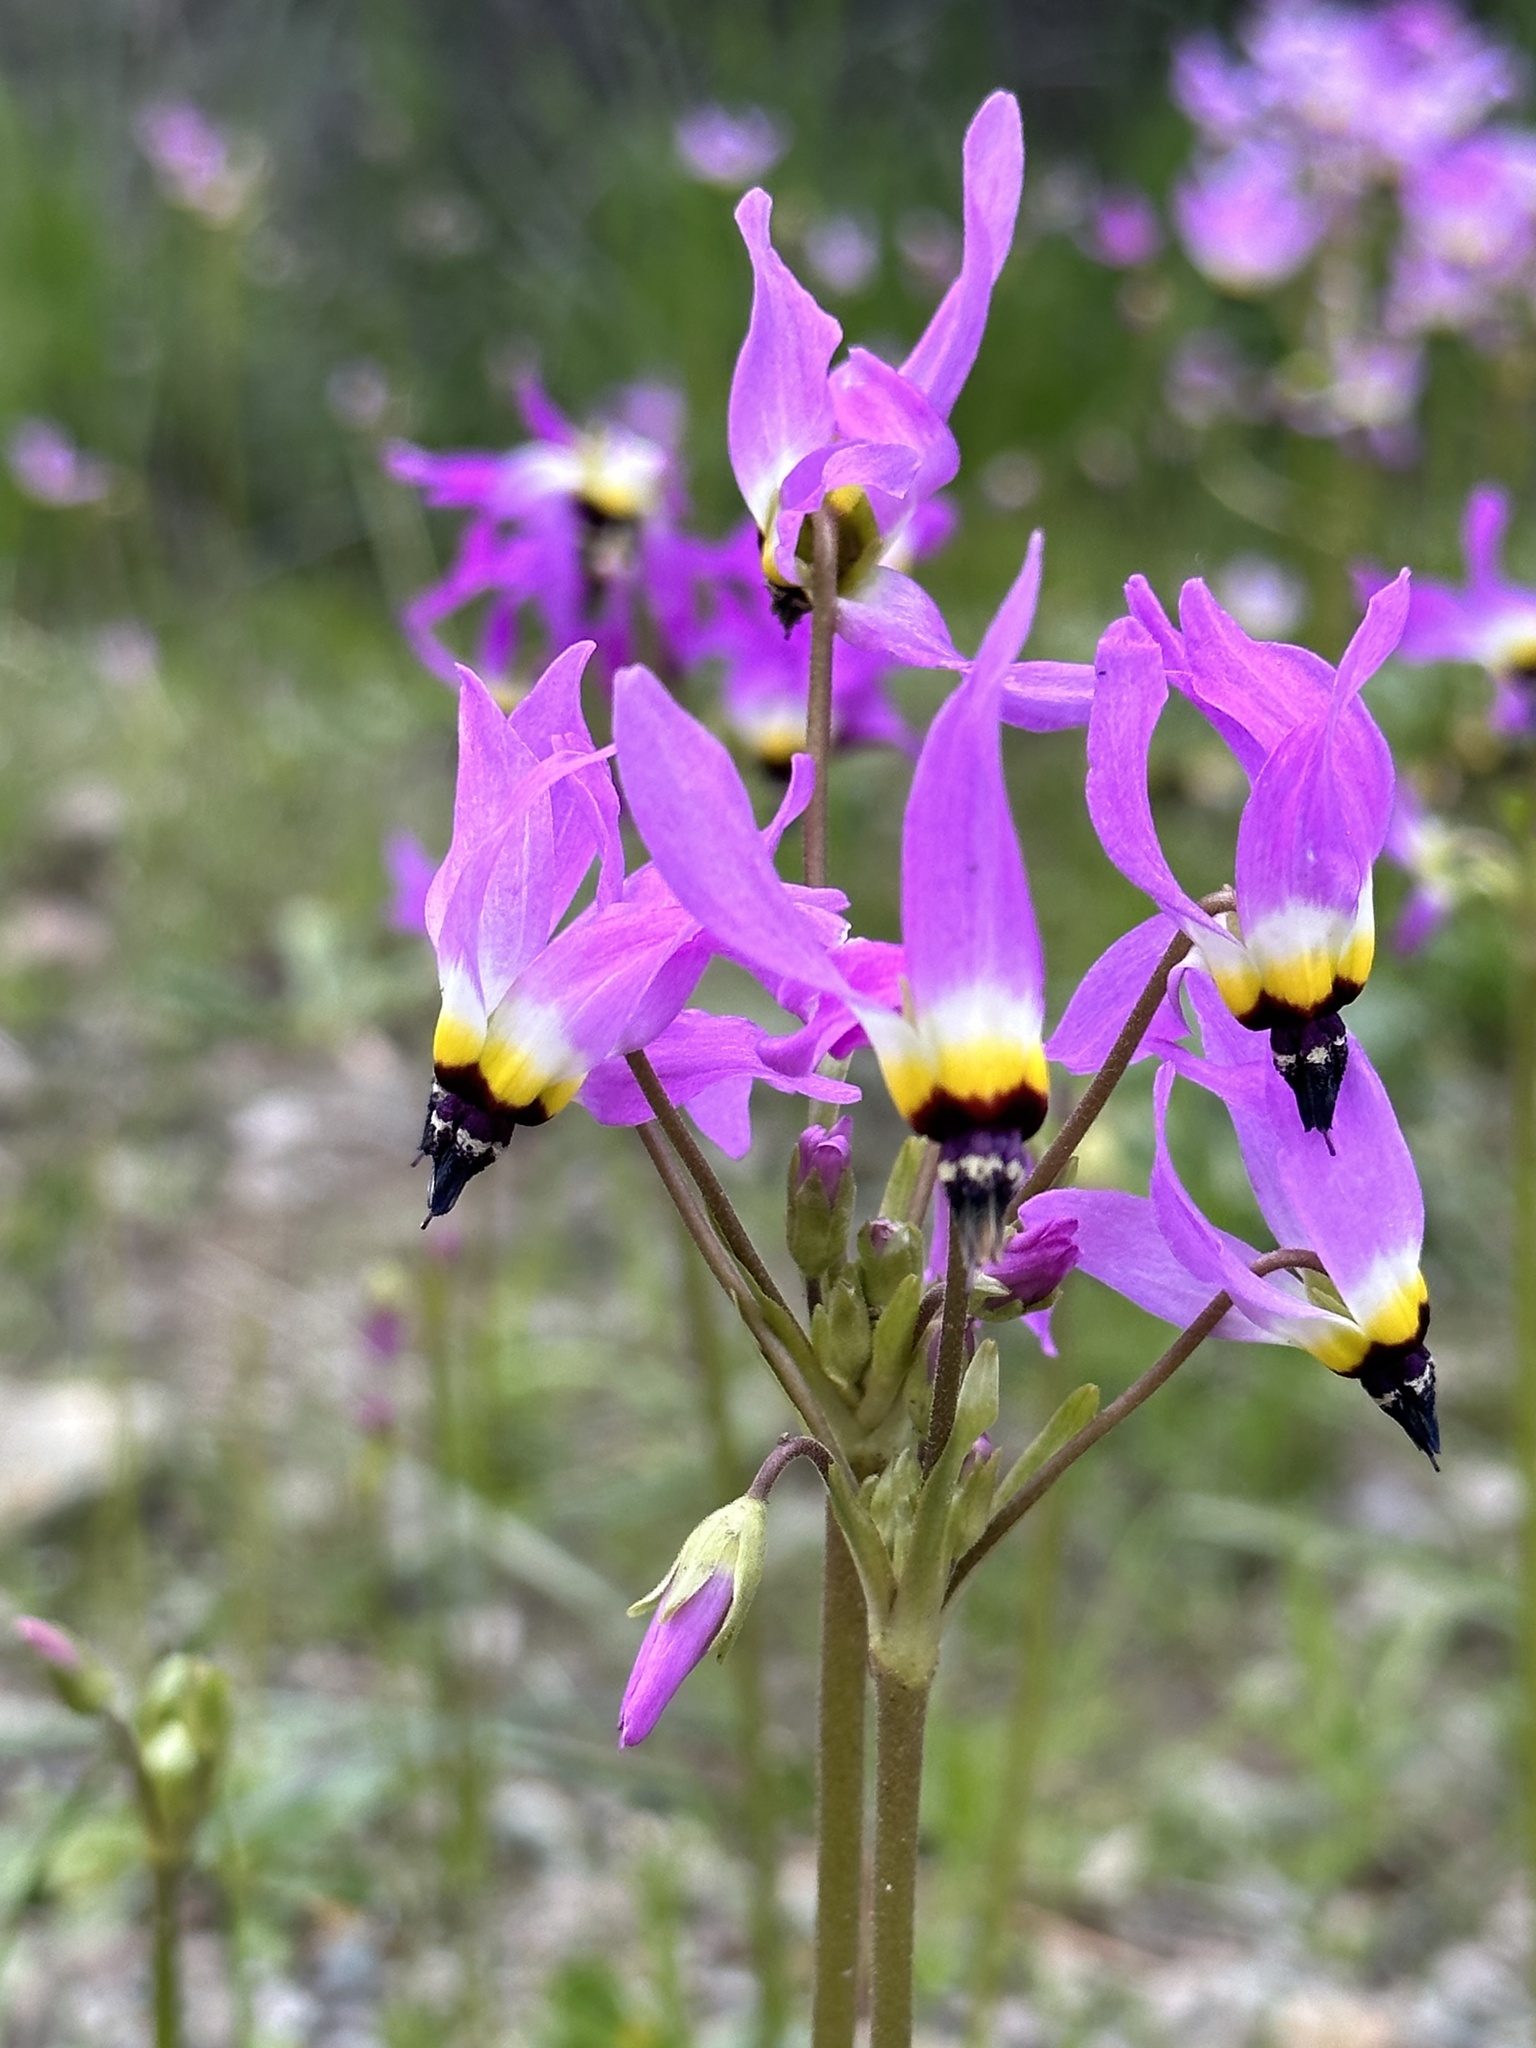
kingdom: Plantae
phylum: Tracheophyta
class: Magnoliopsida
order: Ericales
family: Primulaceae
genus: Dodecatheon
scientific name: Dodecatheon clevelandii
